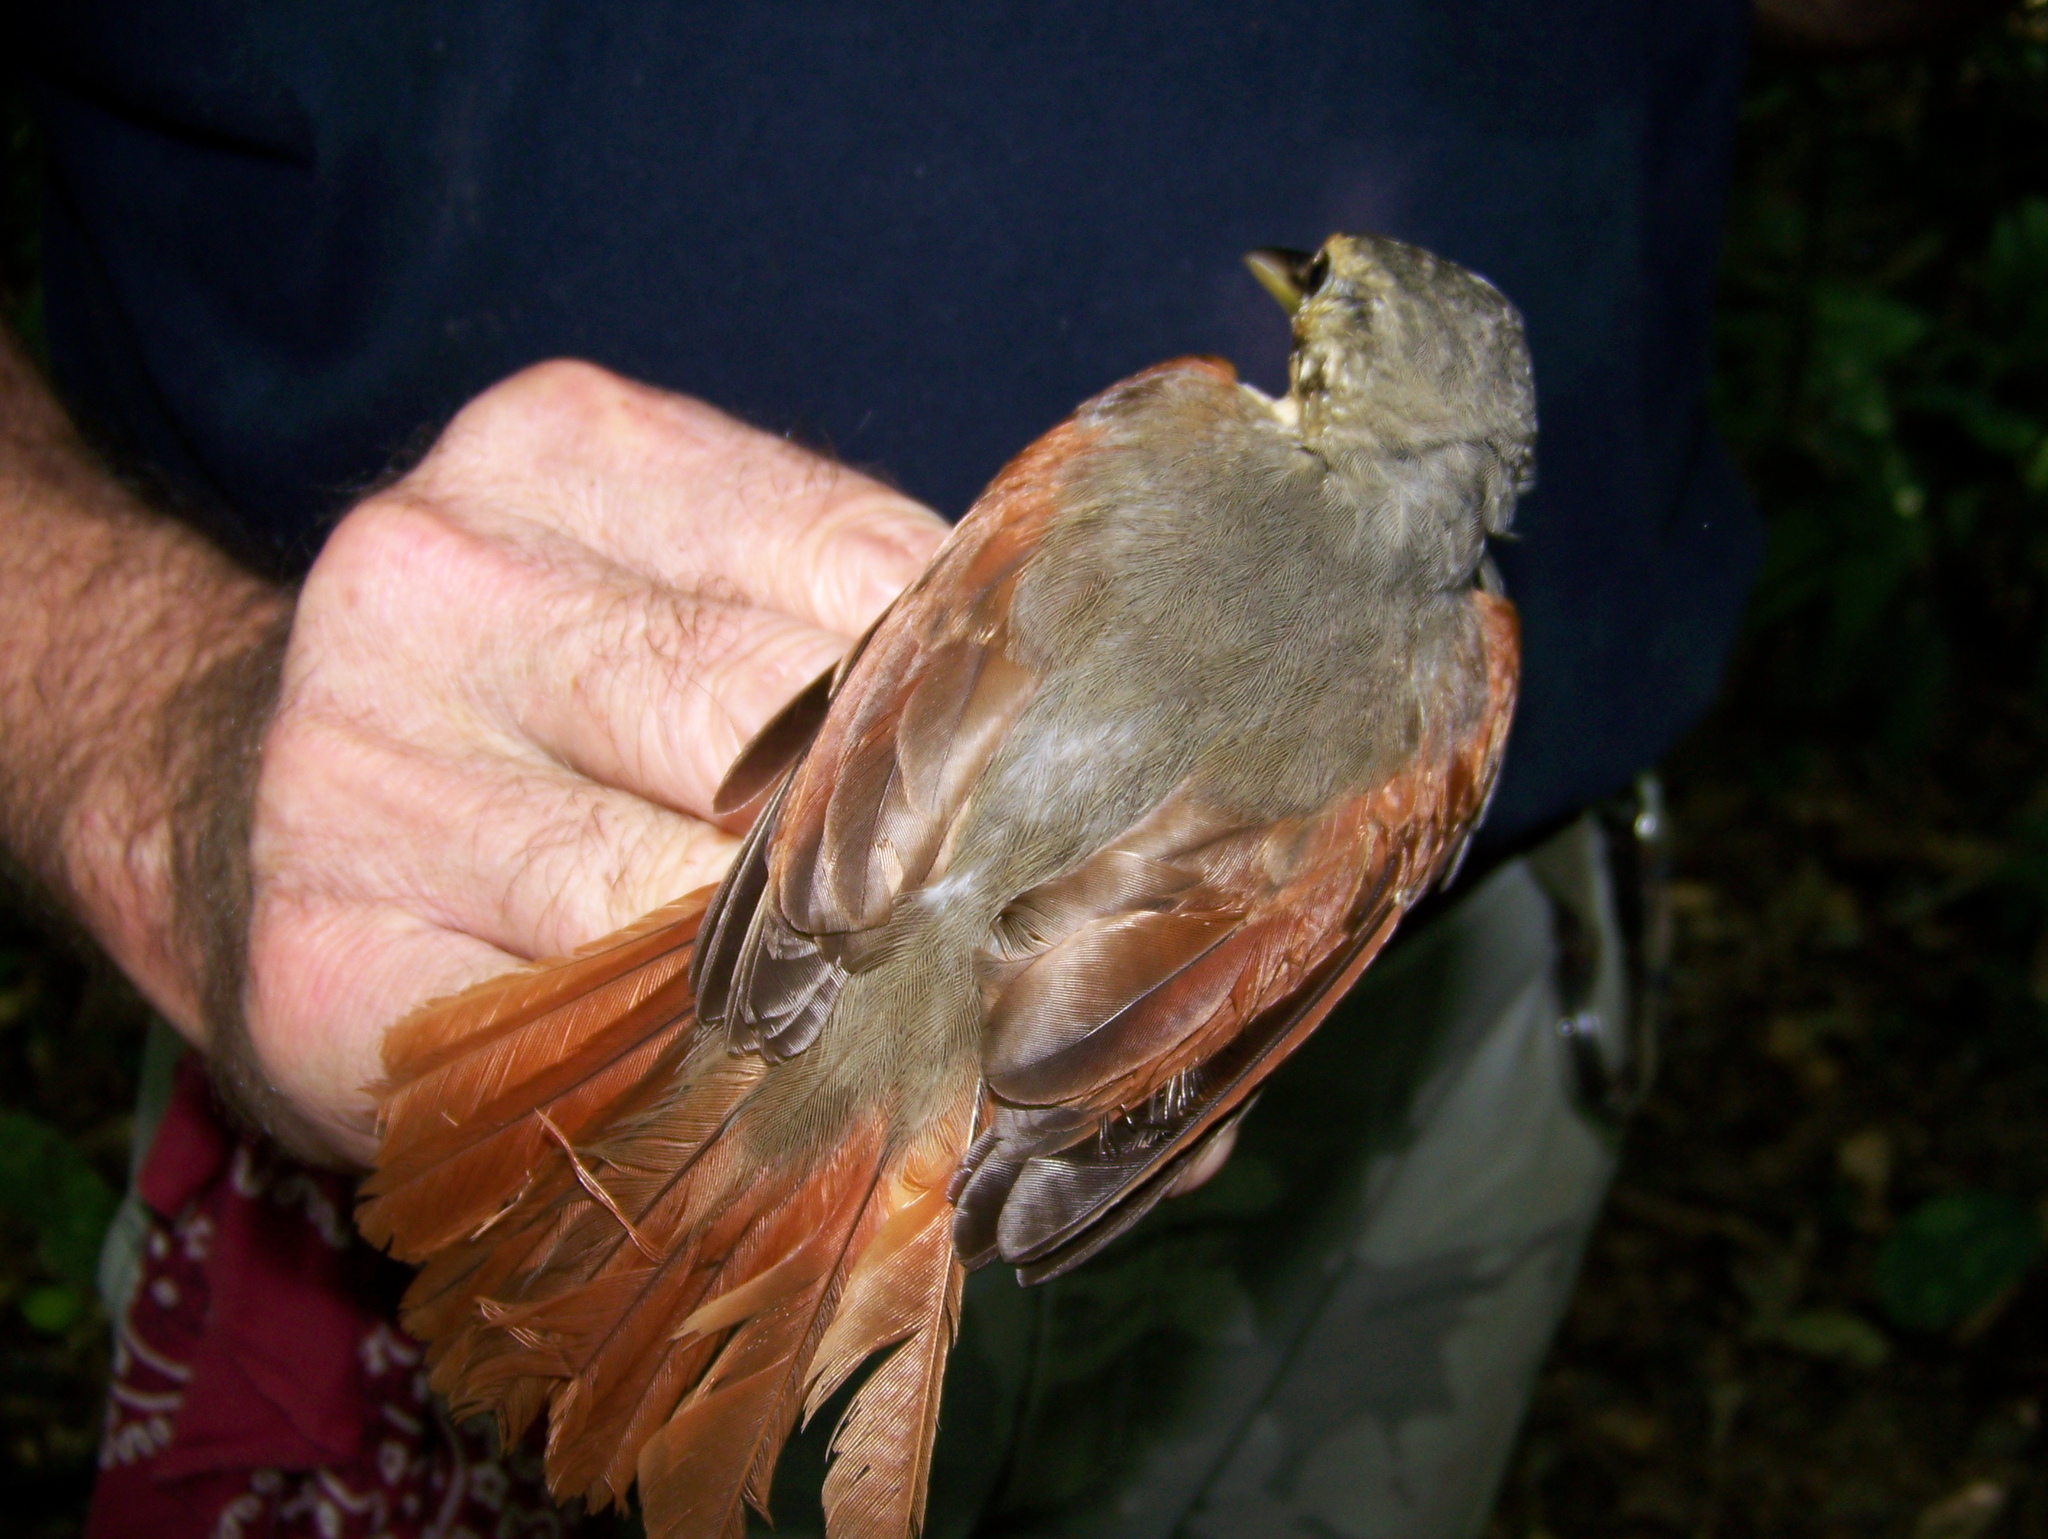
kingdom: Animalia
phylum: Chordata
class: Aves
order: Passeriformes
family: Furnariidae
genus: Philydor
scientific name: Philydor erythropterum
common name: Chestnut-winged foliage-gleaner
